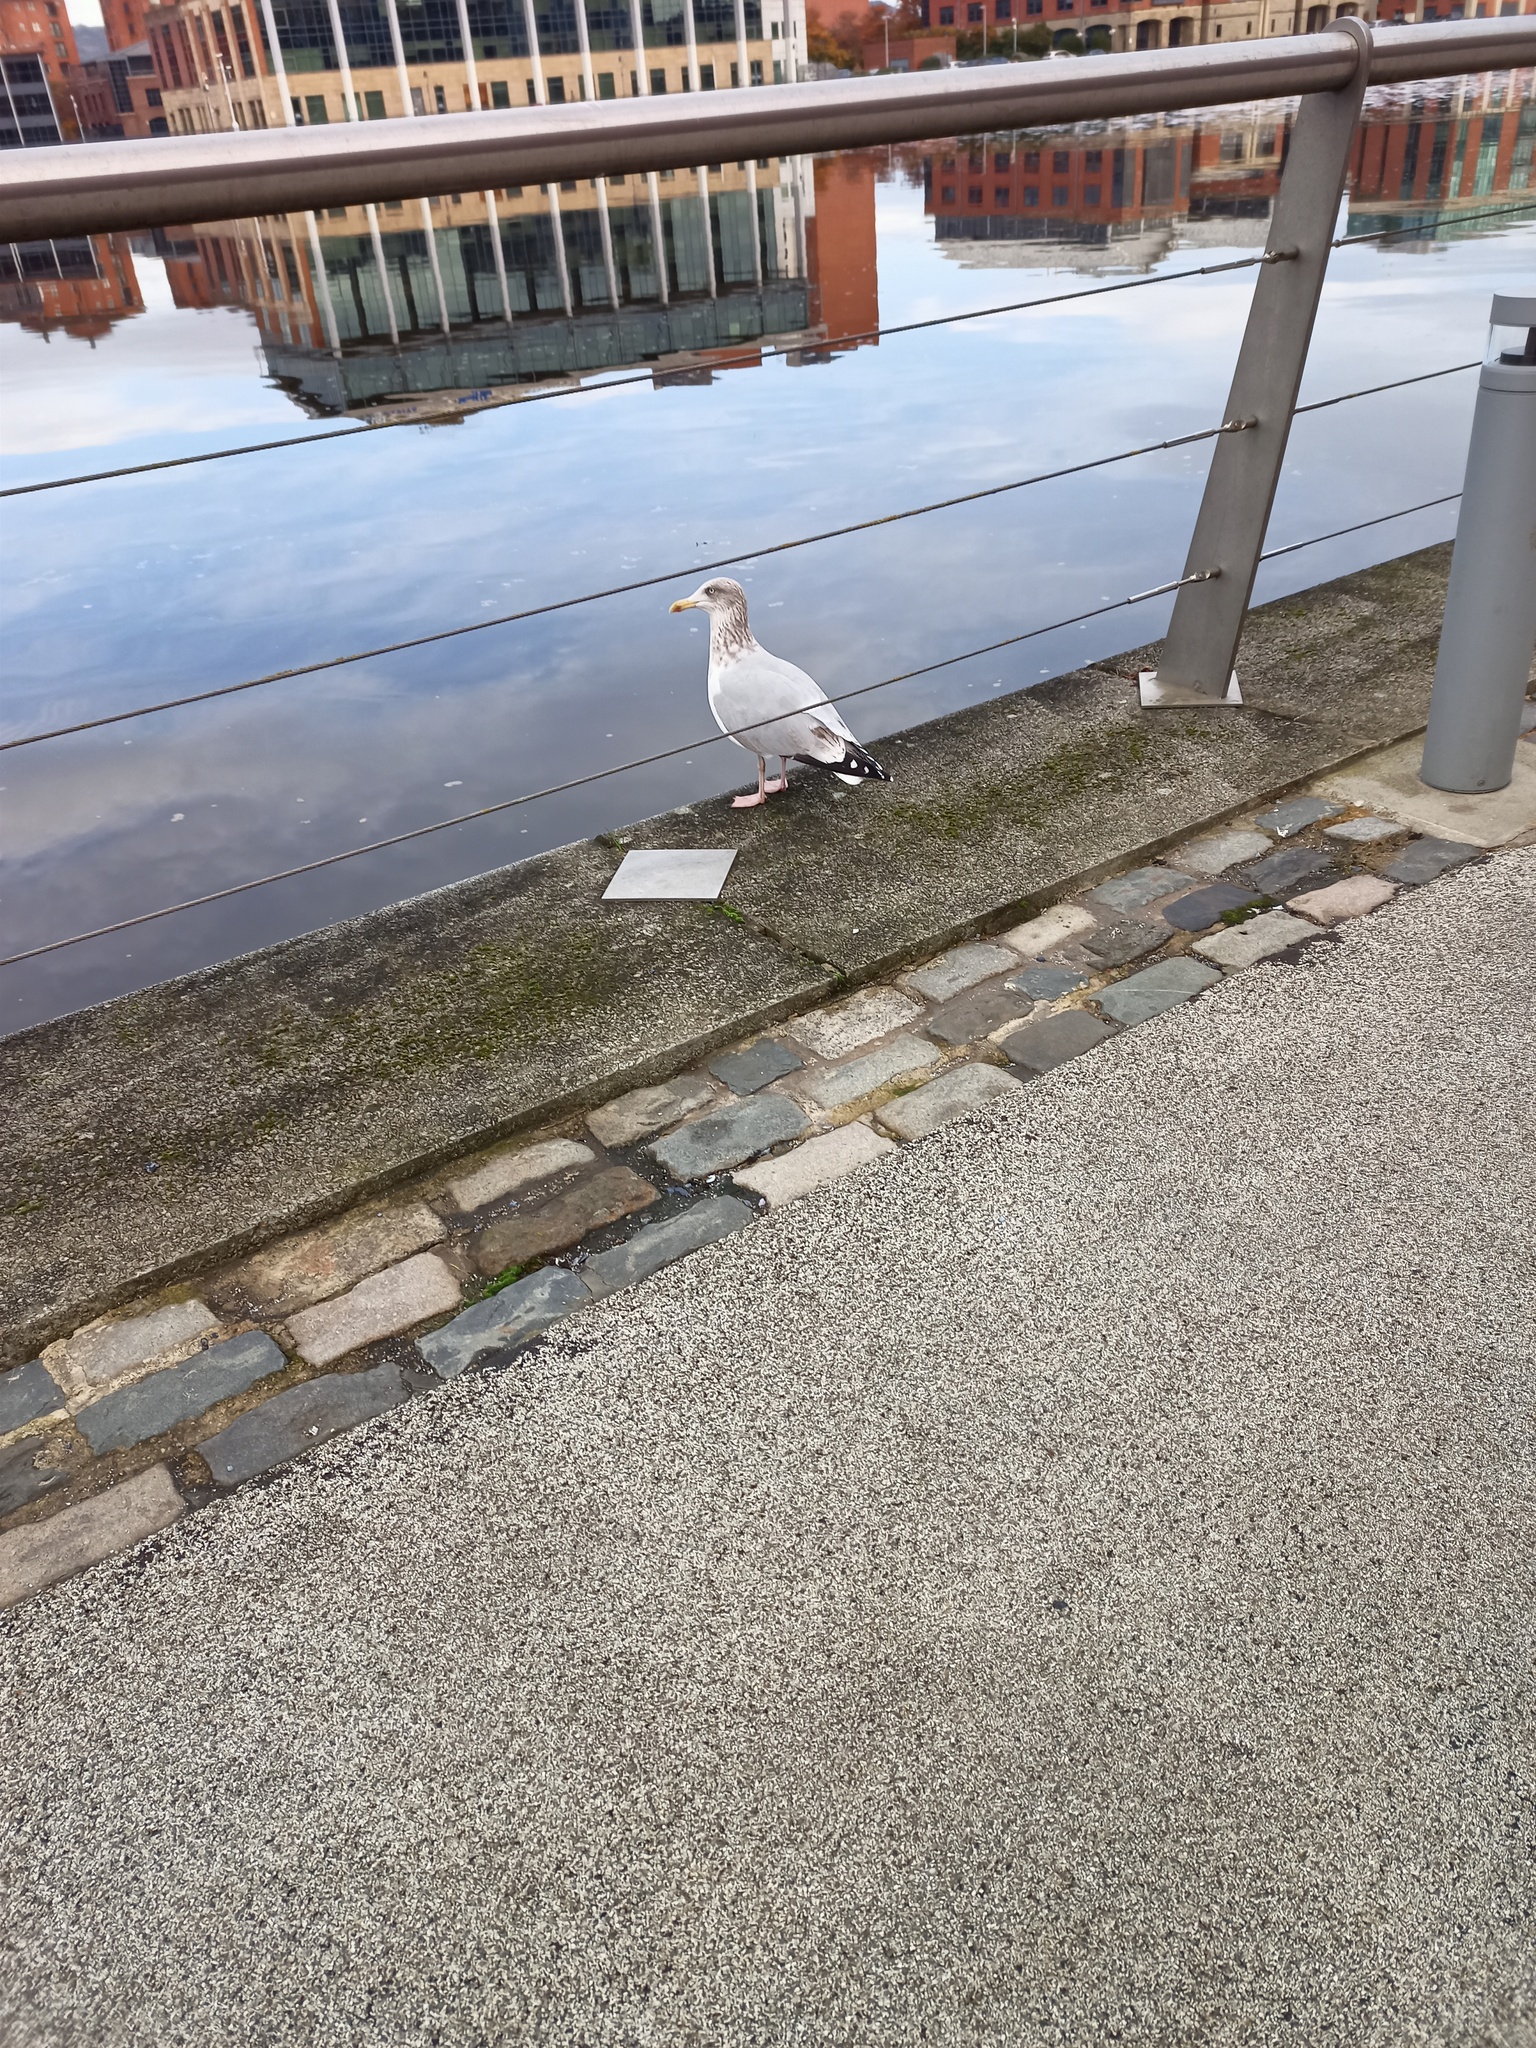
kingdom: Animalia
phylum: Chordata
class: Aves
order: Charadriiformes
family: Laridae
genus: Larus
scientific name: Larus argentatus
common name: Herring gull
